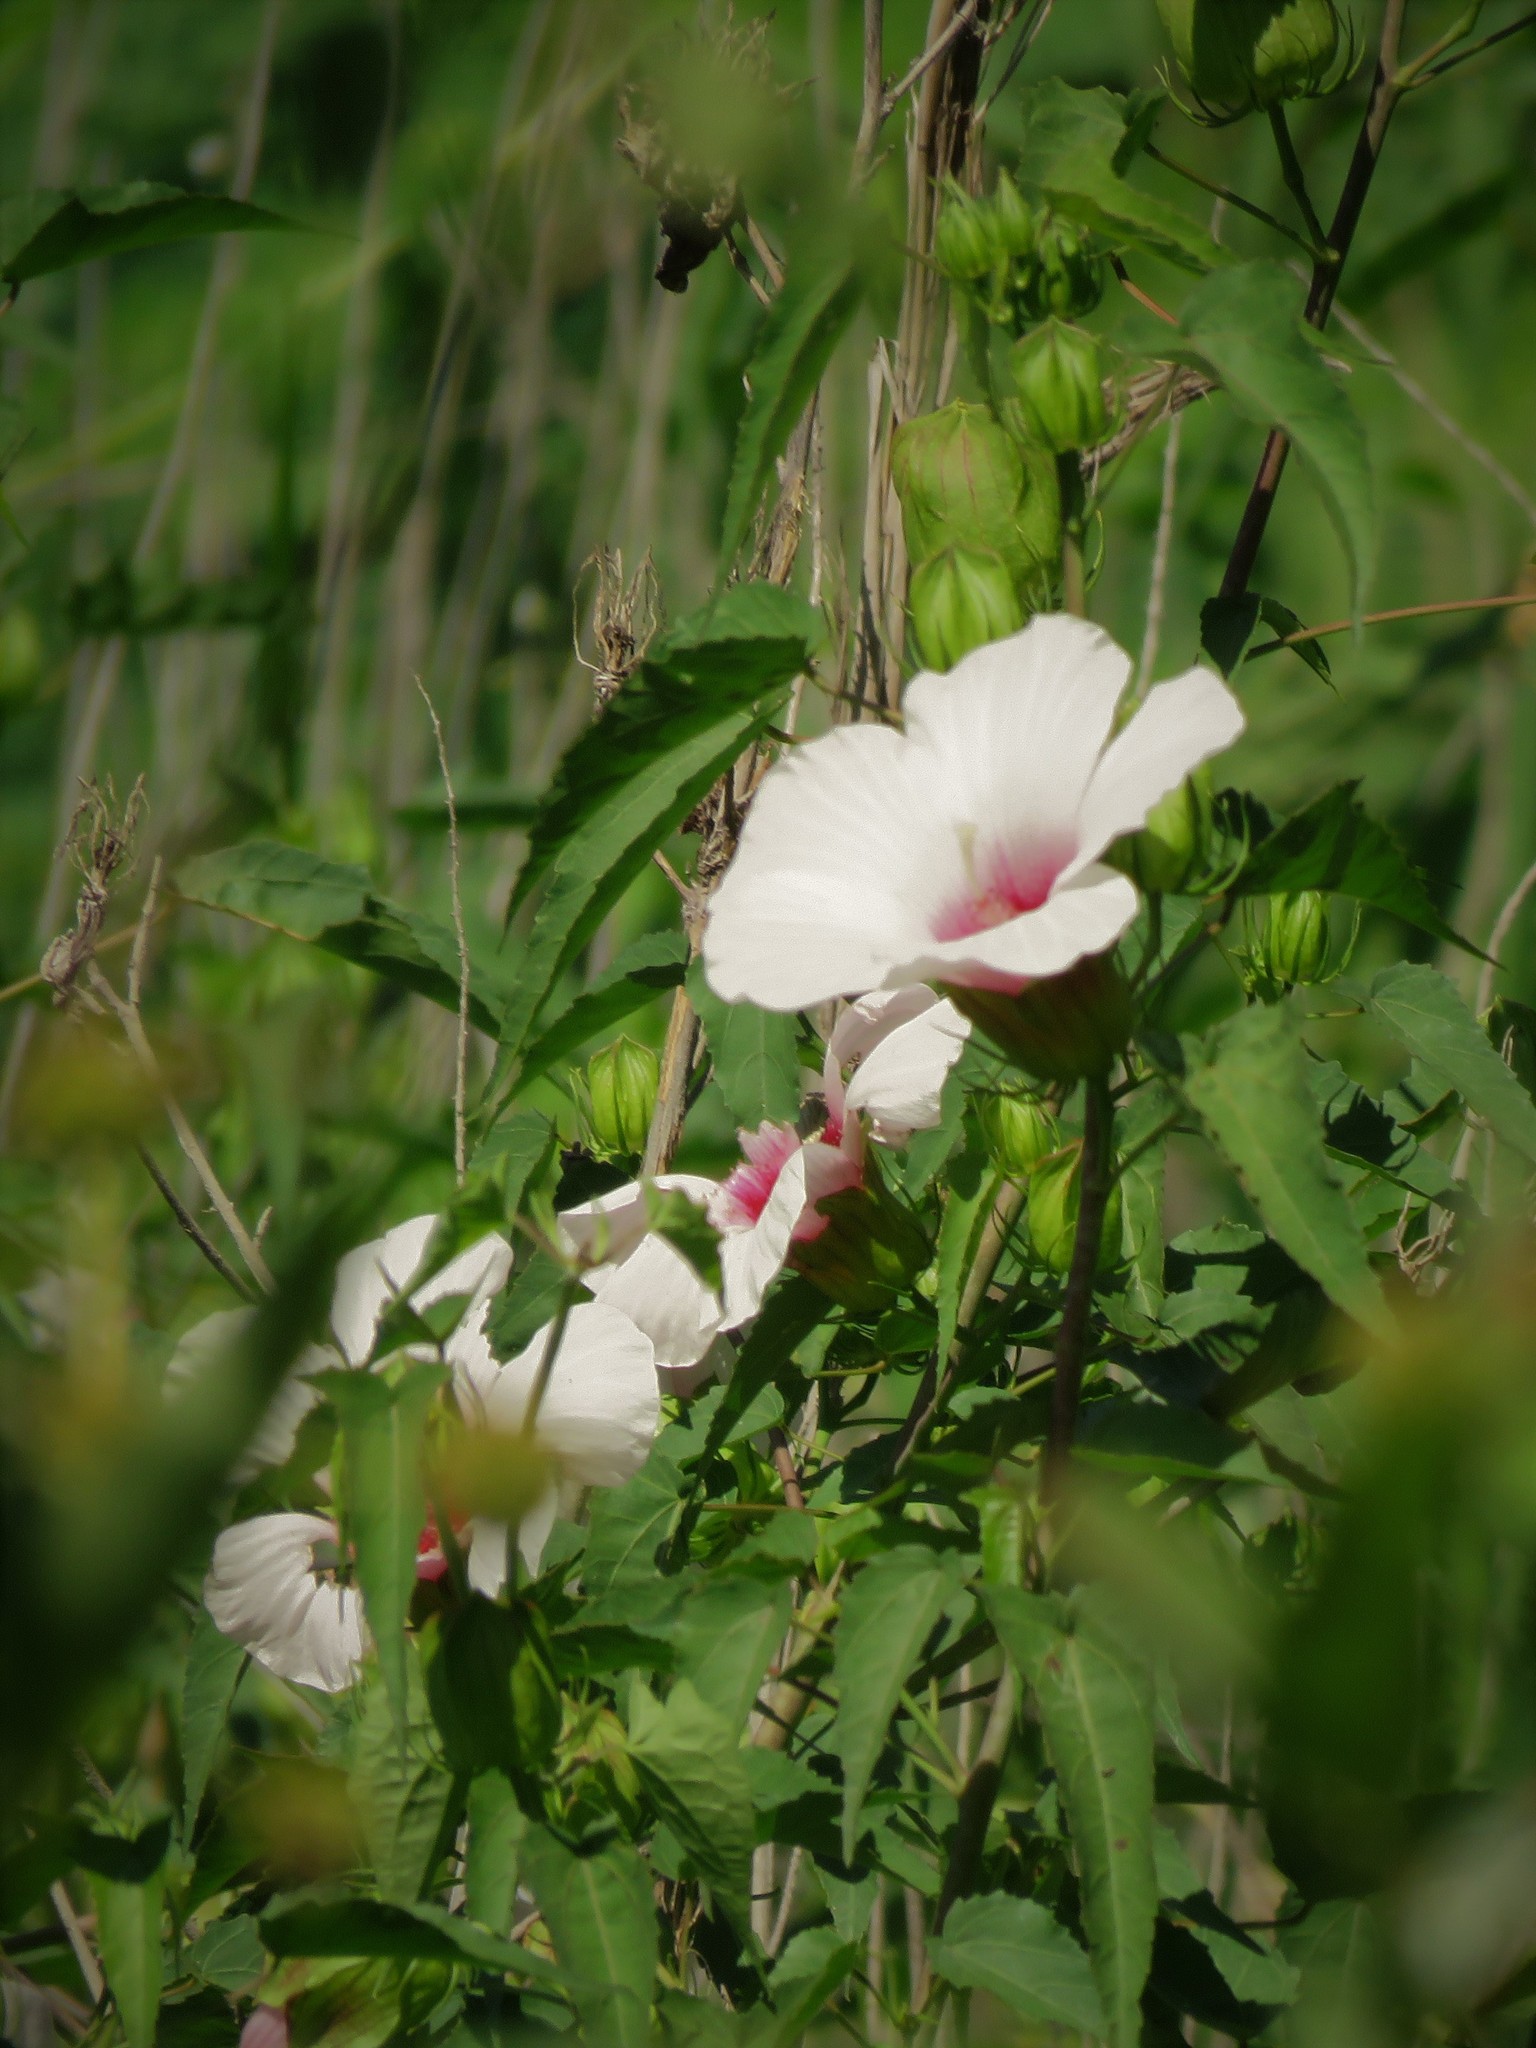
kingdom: Plantae
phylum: Tracheophyta
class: Magnoliopsida
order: Malvales
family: Malvaceae
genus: Hibiscus
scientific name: Hibiscus laevis
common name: Scarlet rose-mallow
